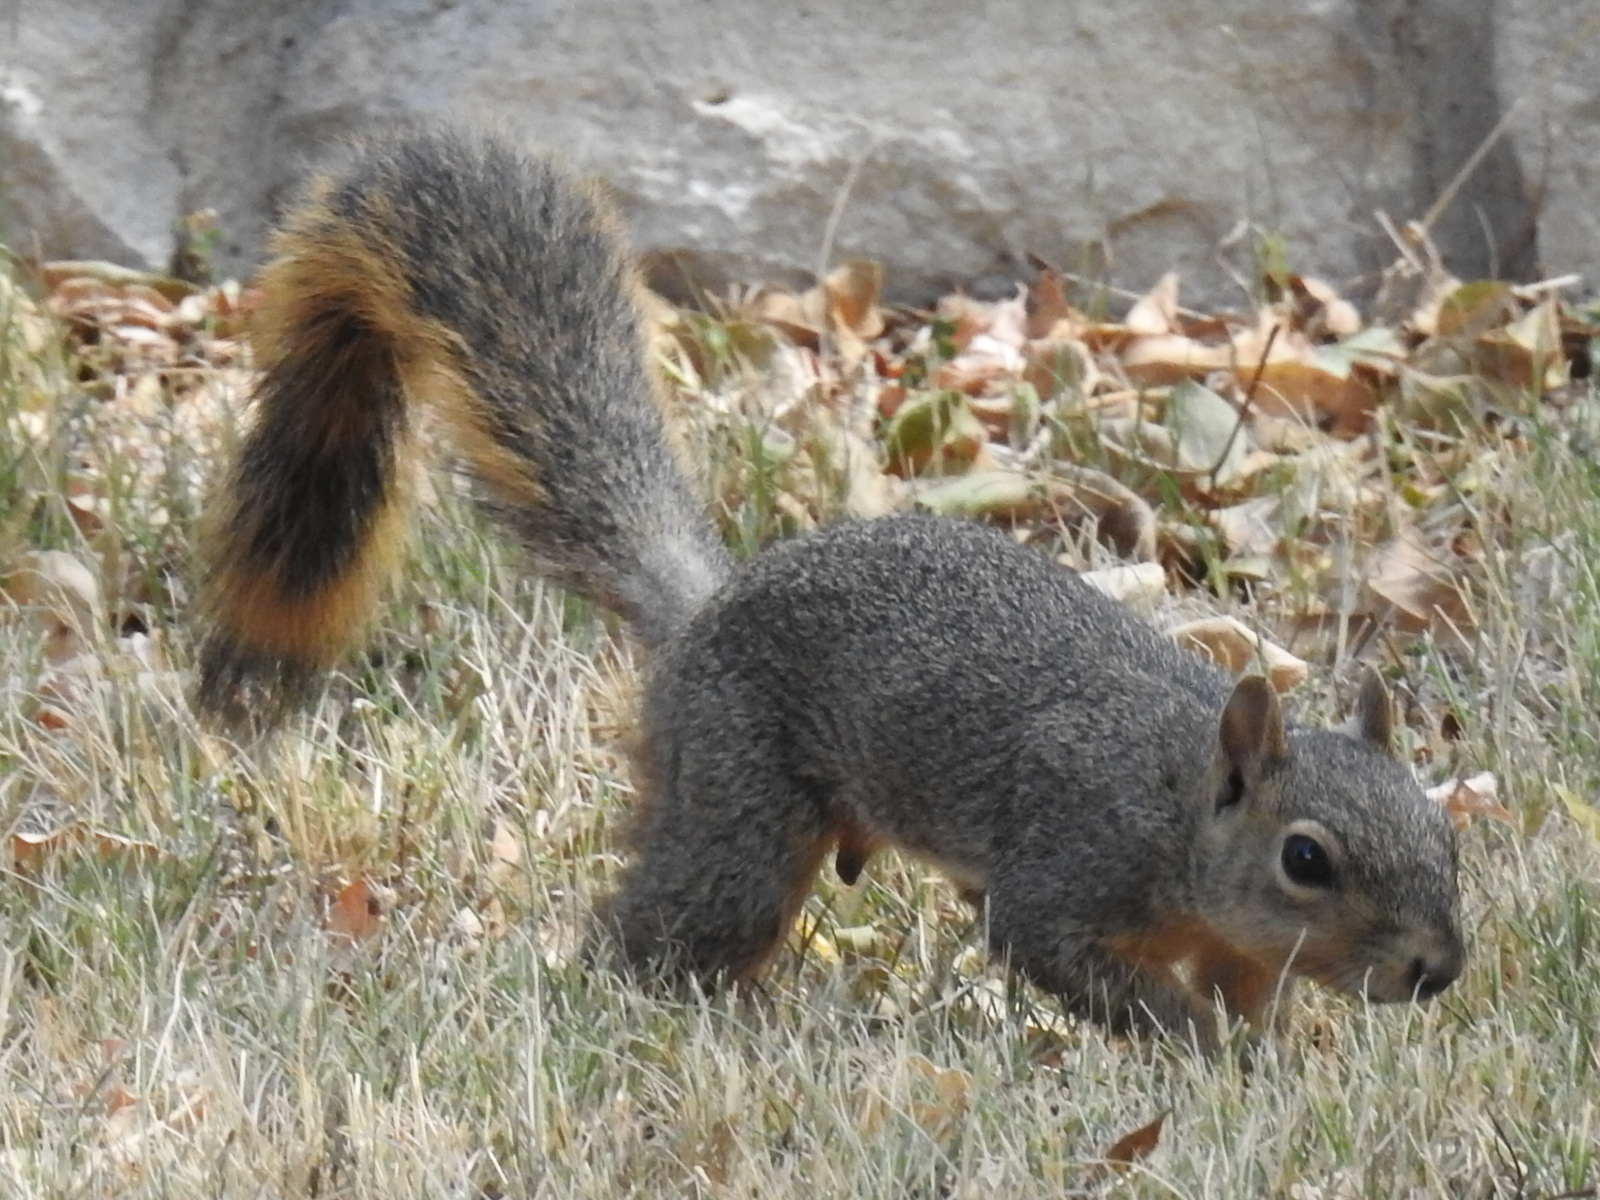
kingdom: Animalia
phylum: Chordata
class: Mammalia
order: Rodentia
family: Sciuridae
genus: Sciurus
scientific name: Sciurus niger
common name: Fox squirrel
